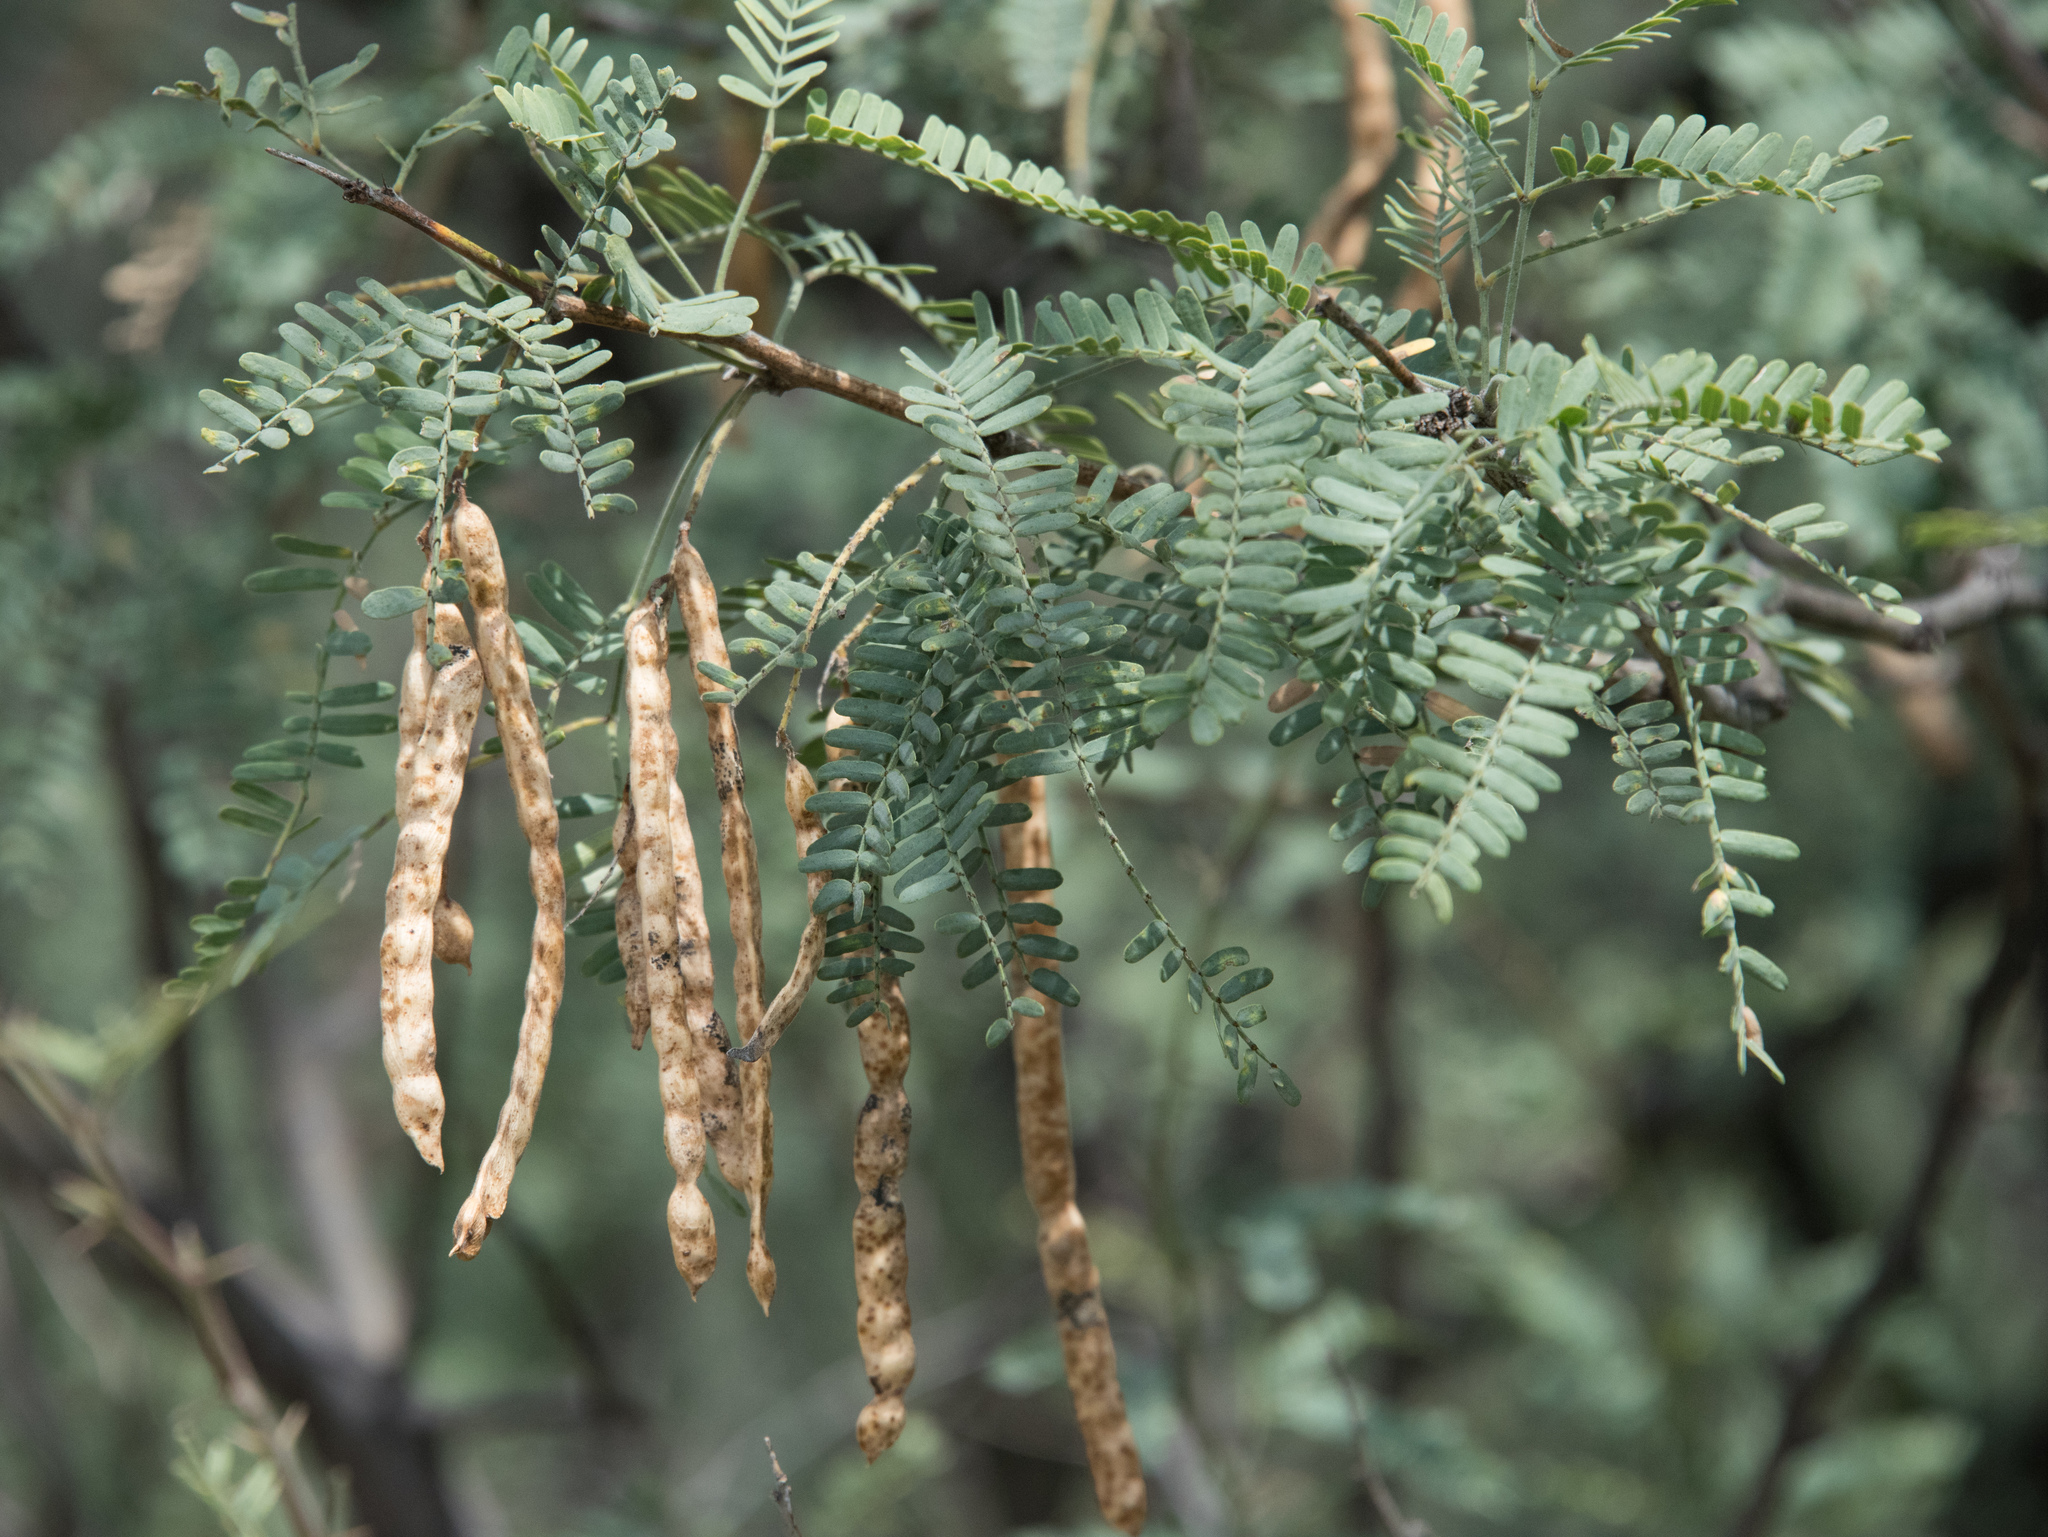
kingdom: Plantae
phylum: Tracheophyta
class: Magnoliopsida
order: Fabales
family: Fabaceae
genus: Prosopis
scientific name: Prosopis velutina
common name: Velvet mesquite
